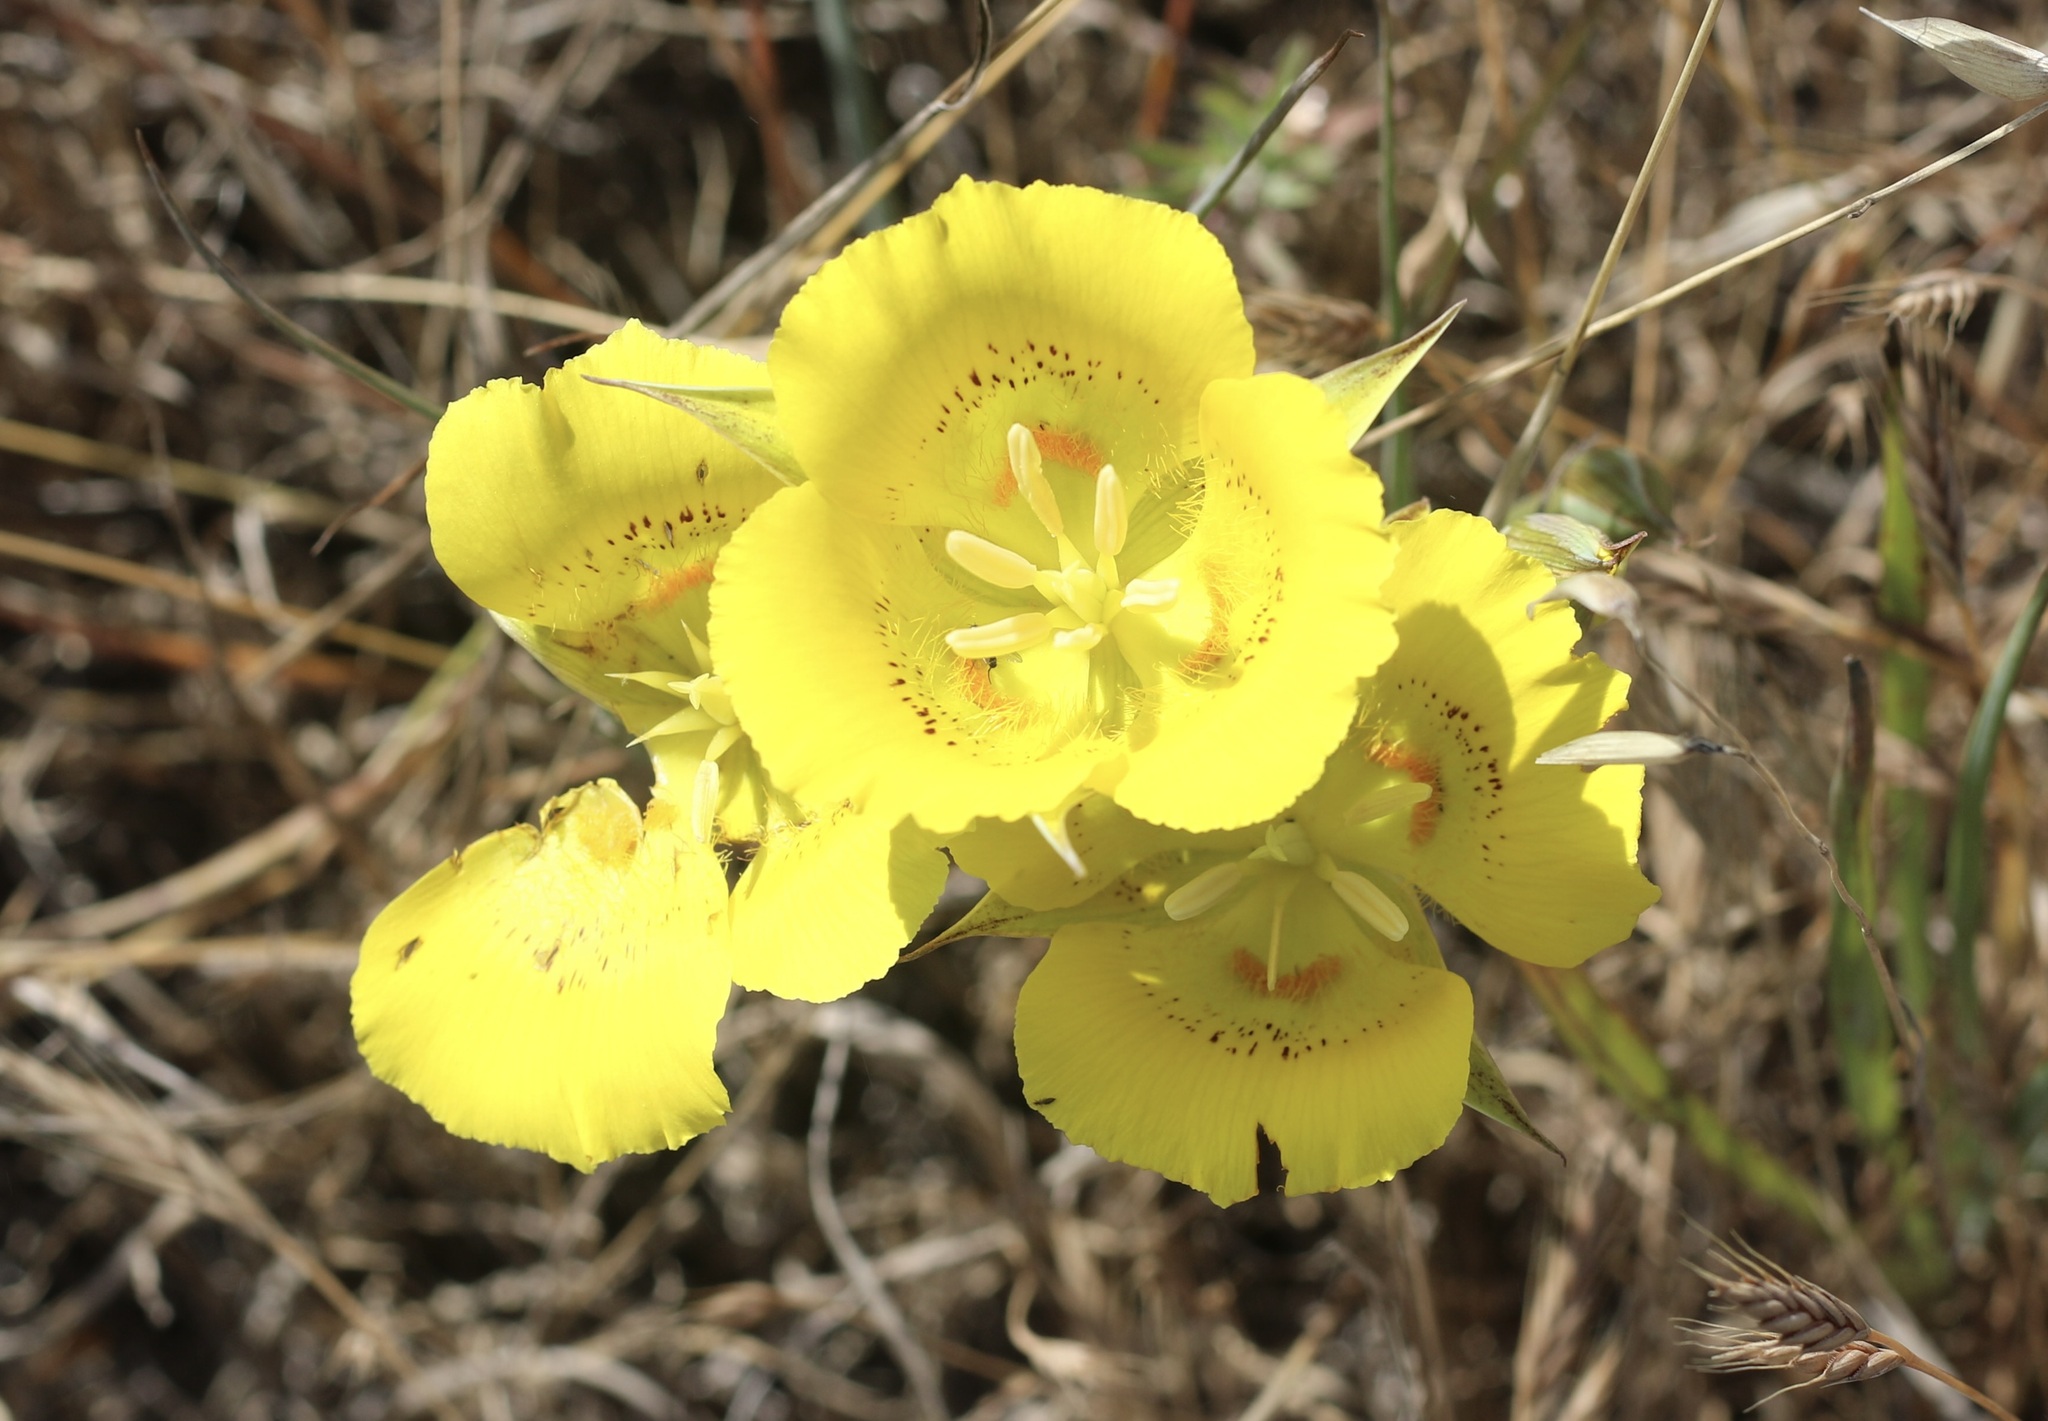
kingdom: Plantae
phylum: Tracheophyta
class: Liliopsida
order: Liliales
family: Liliaceae
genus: Calochortus
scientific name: Calochortus luteus
